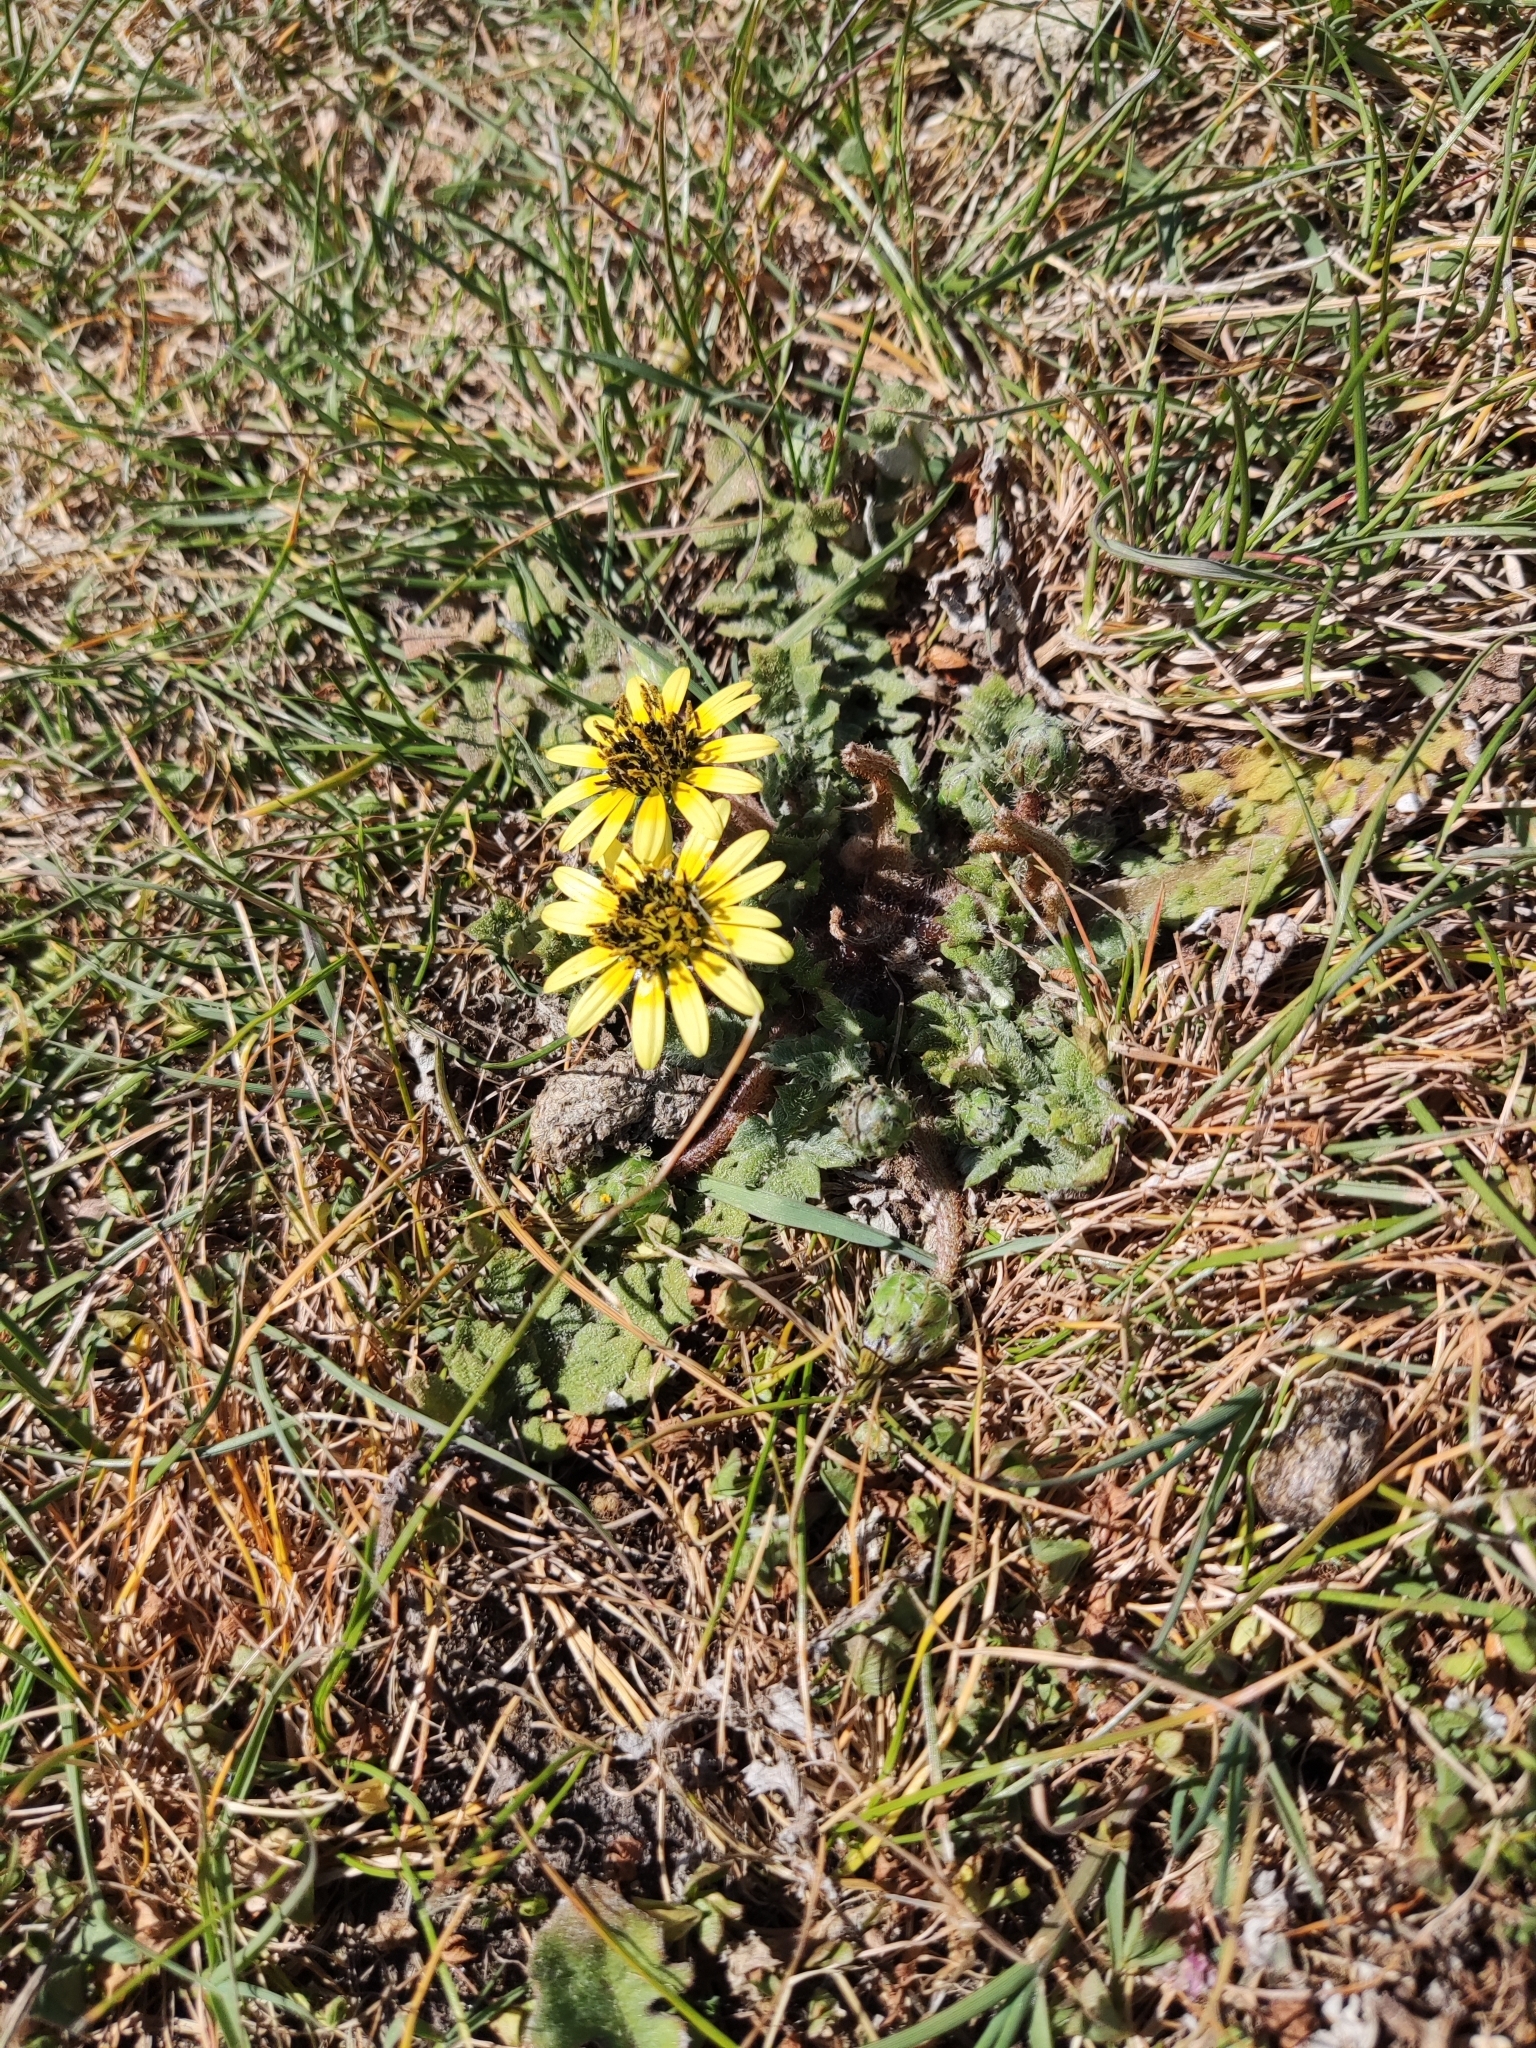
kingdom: Plantae
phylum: Tracheophyta
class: Magnoliopsida
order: Asterales
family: Asteraceae
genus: Arctotheca
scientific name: Arctotheca calendula
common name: Capeweed
